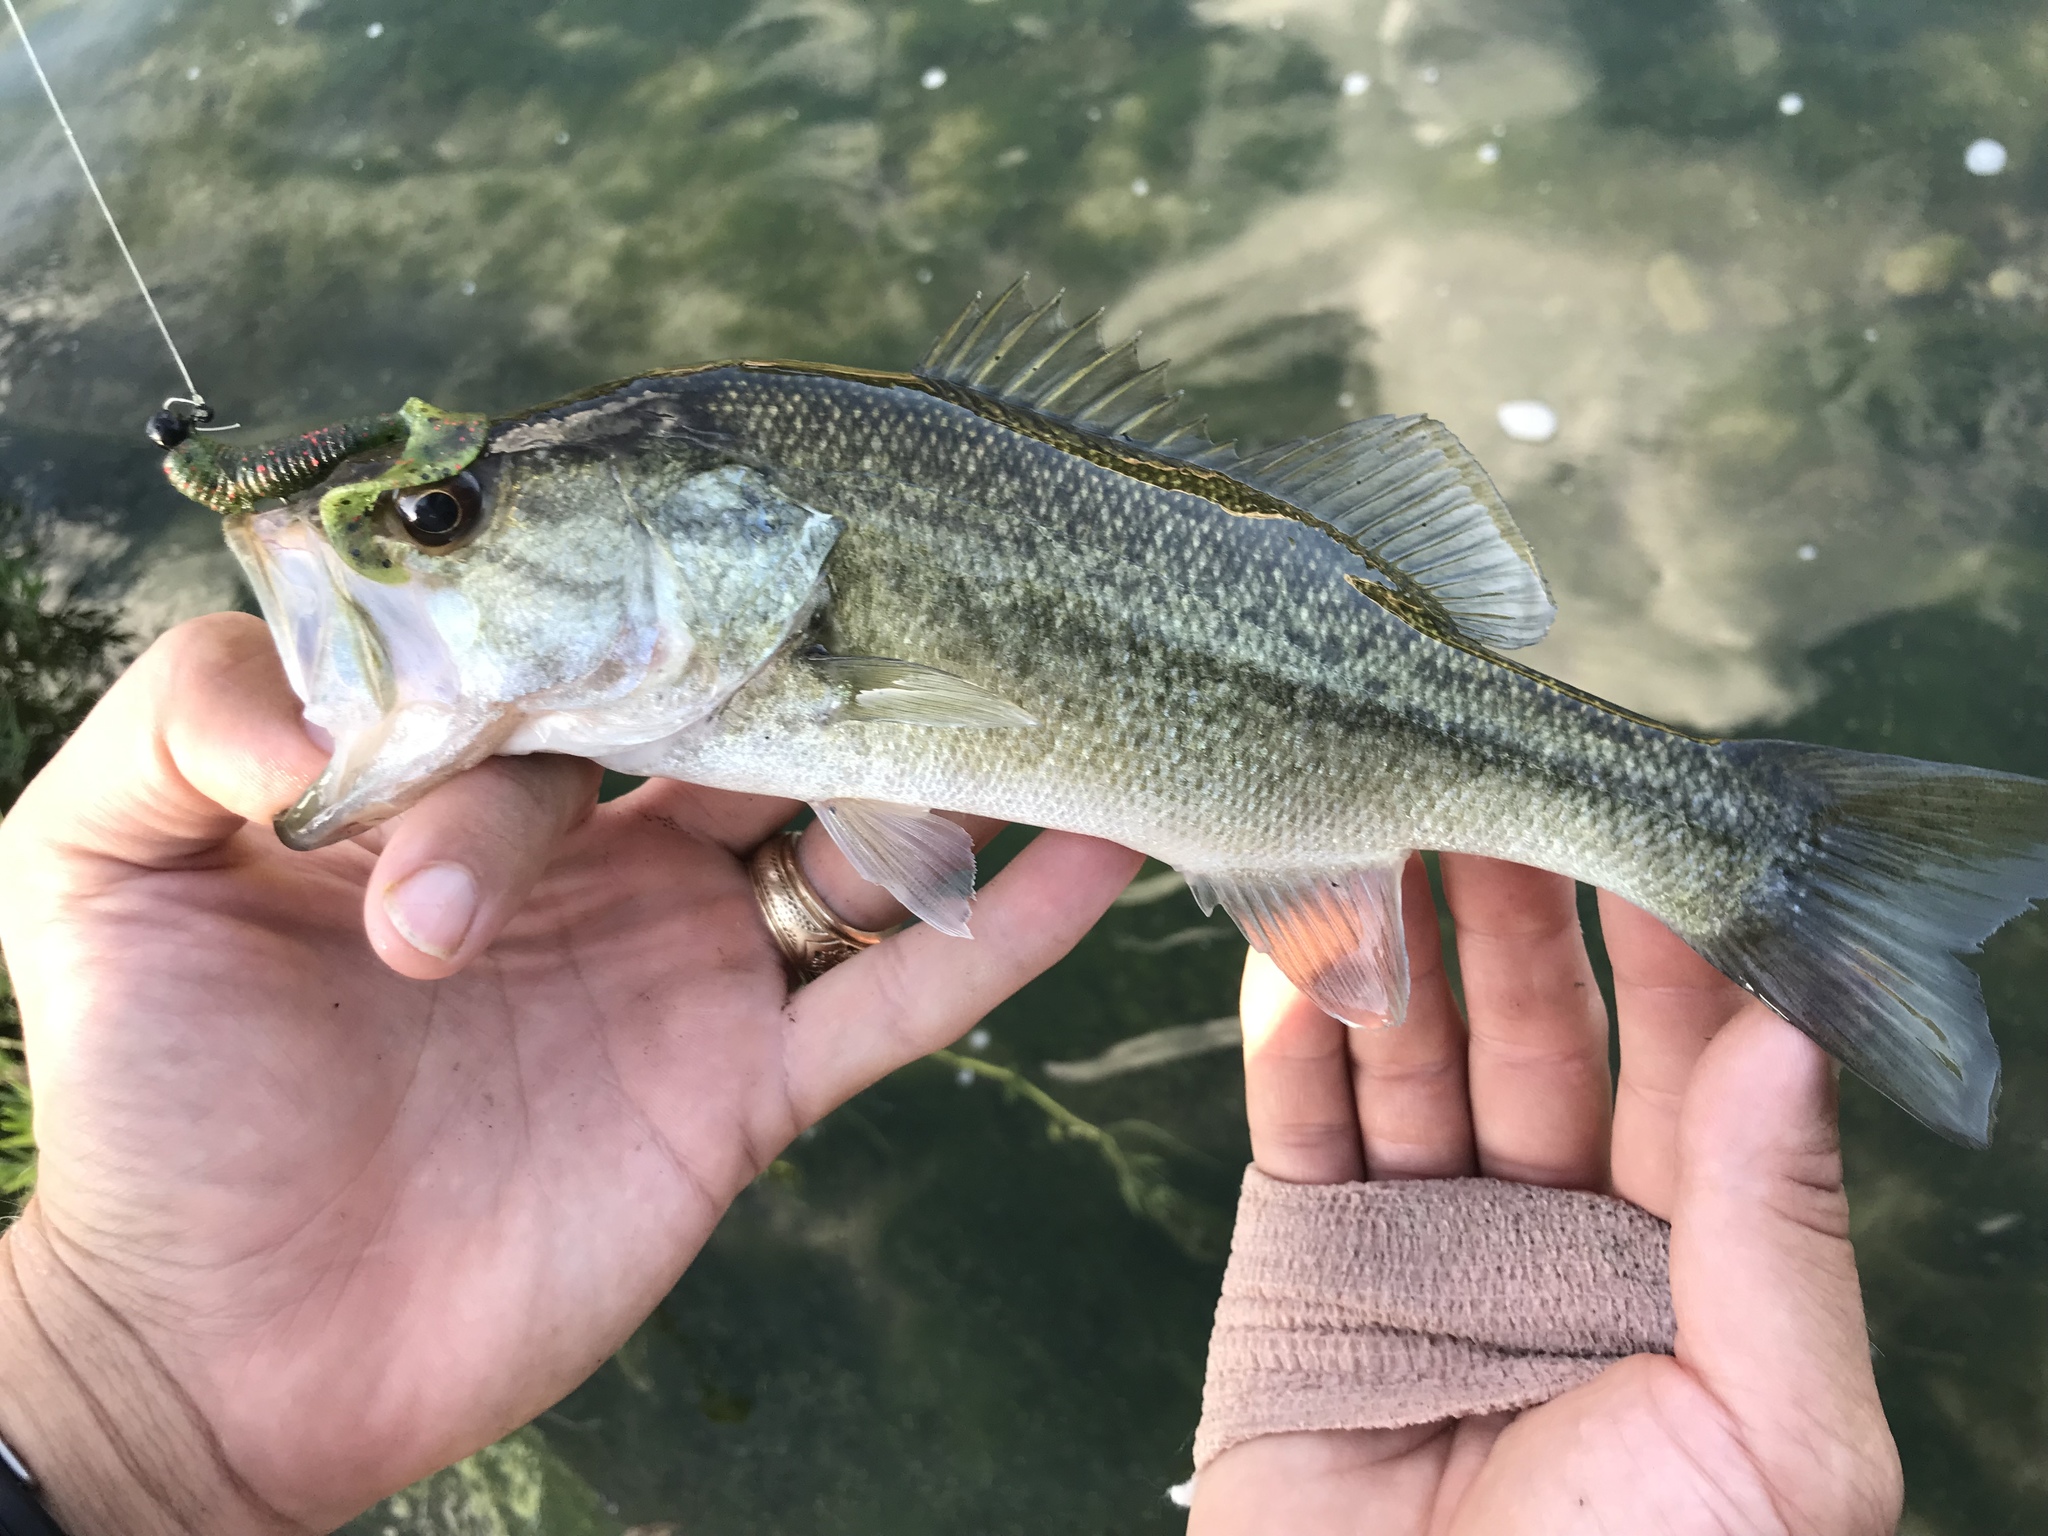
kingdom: Animalia
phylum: Chordata
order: Perciformes
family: Centrarchidae
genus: Micropterus
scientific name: Micropterus
